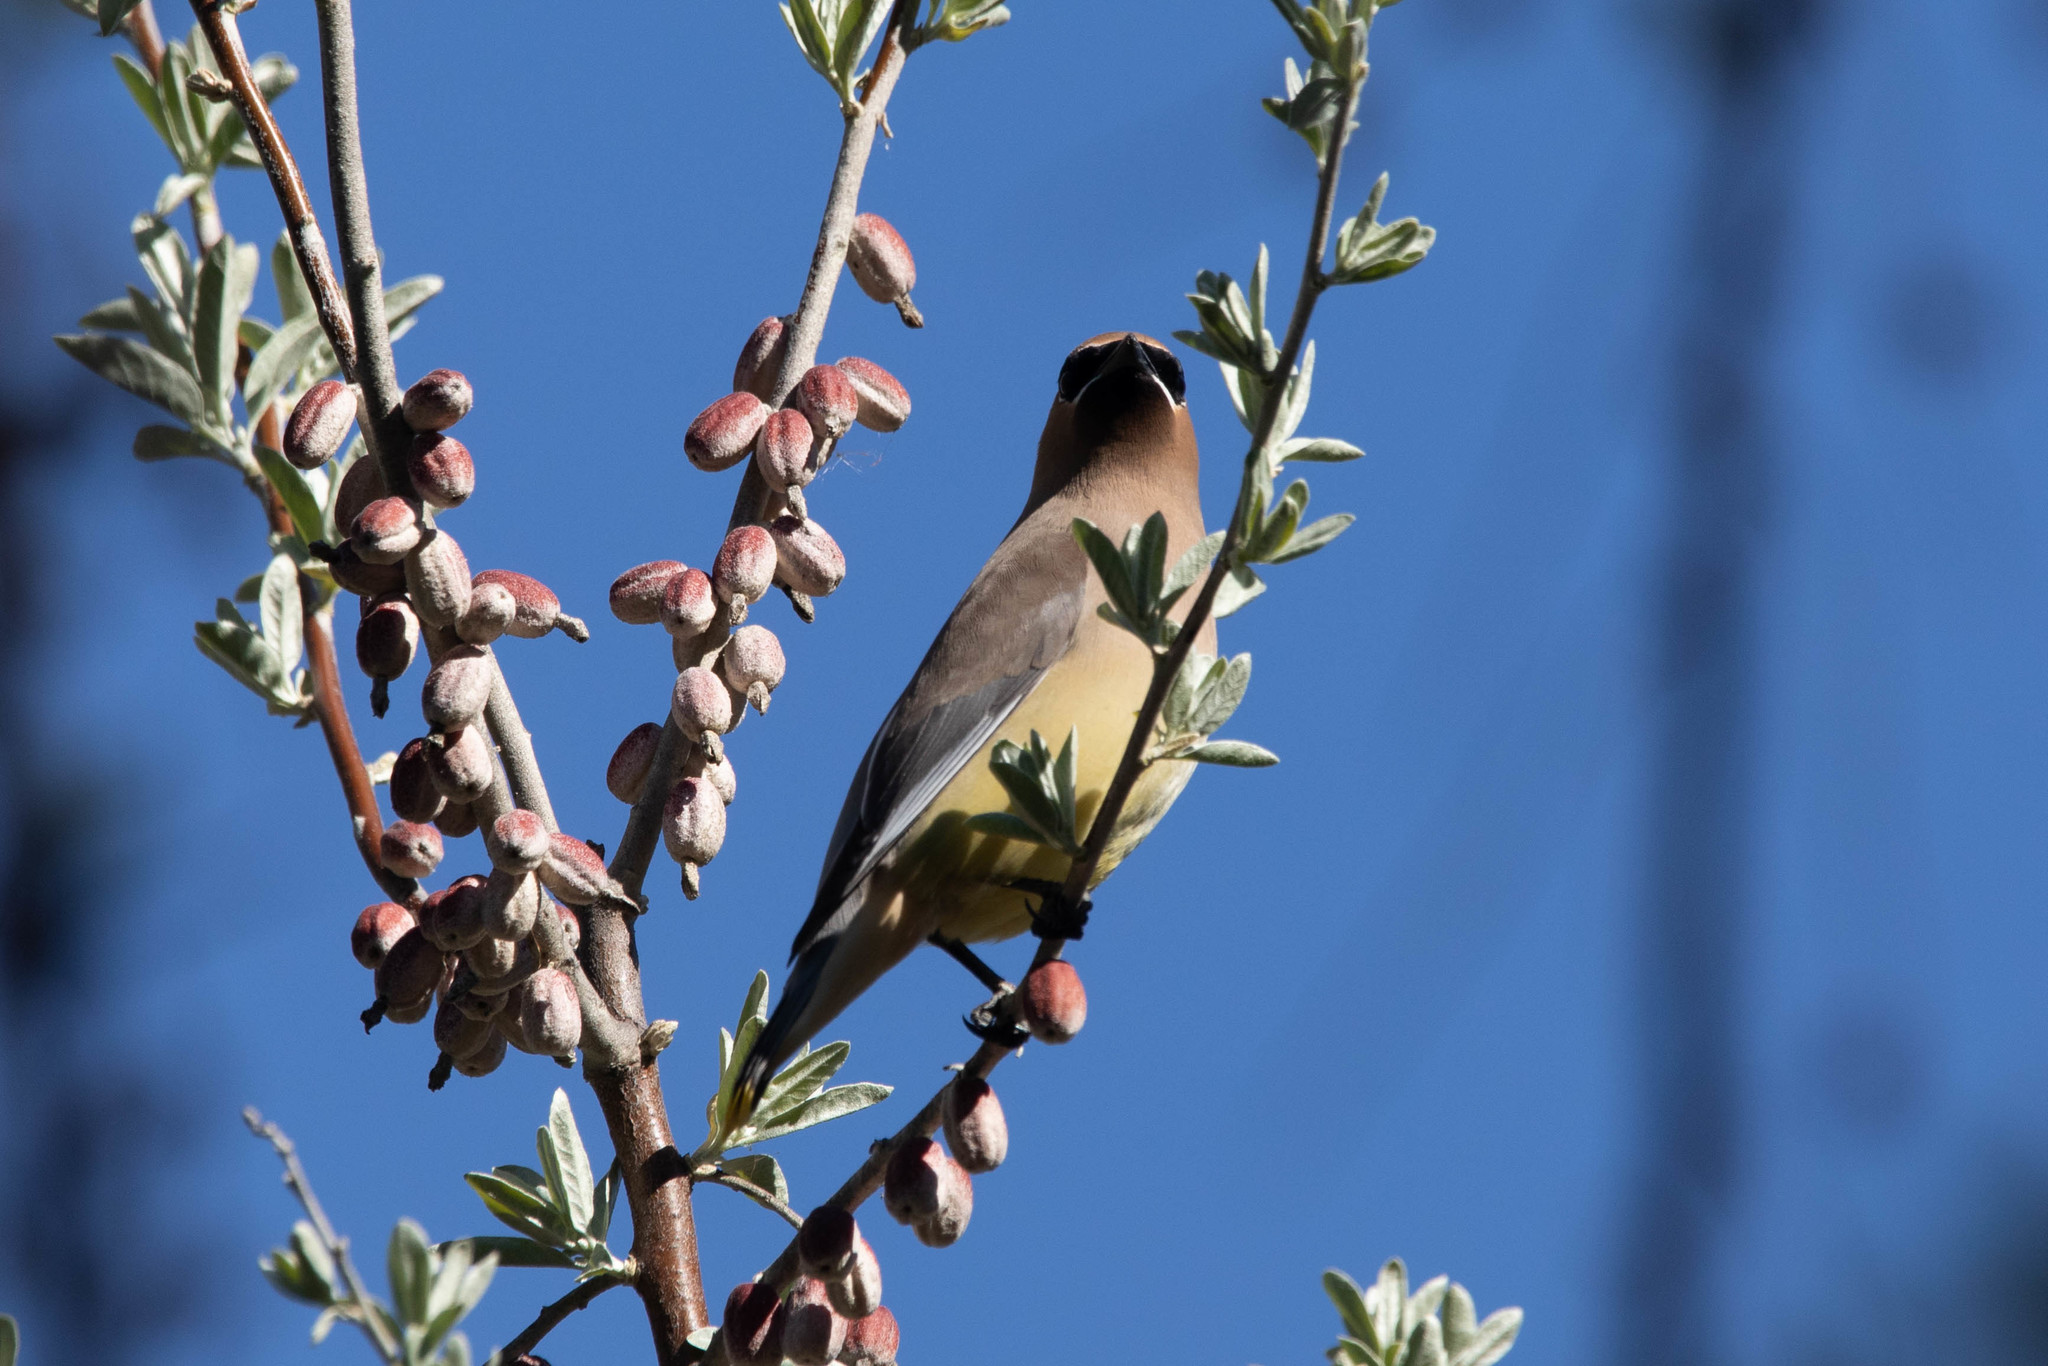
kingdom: Animalia
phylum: Chordata
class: Aves
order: Passeriformes
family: Bombycillidae
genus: Bombycilla
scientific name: Bombycilla cedrorum
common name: Cedar waxwing
